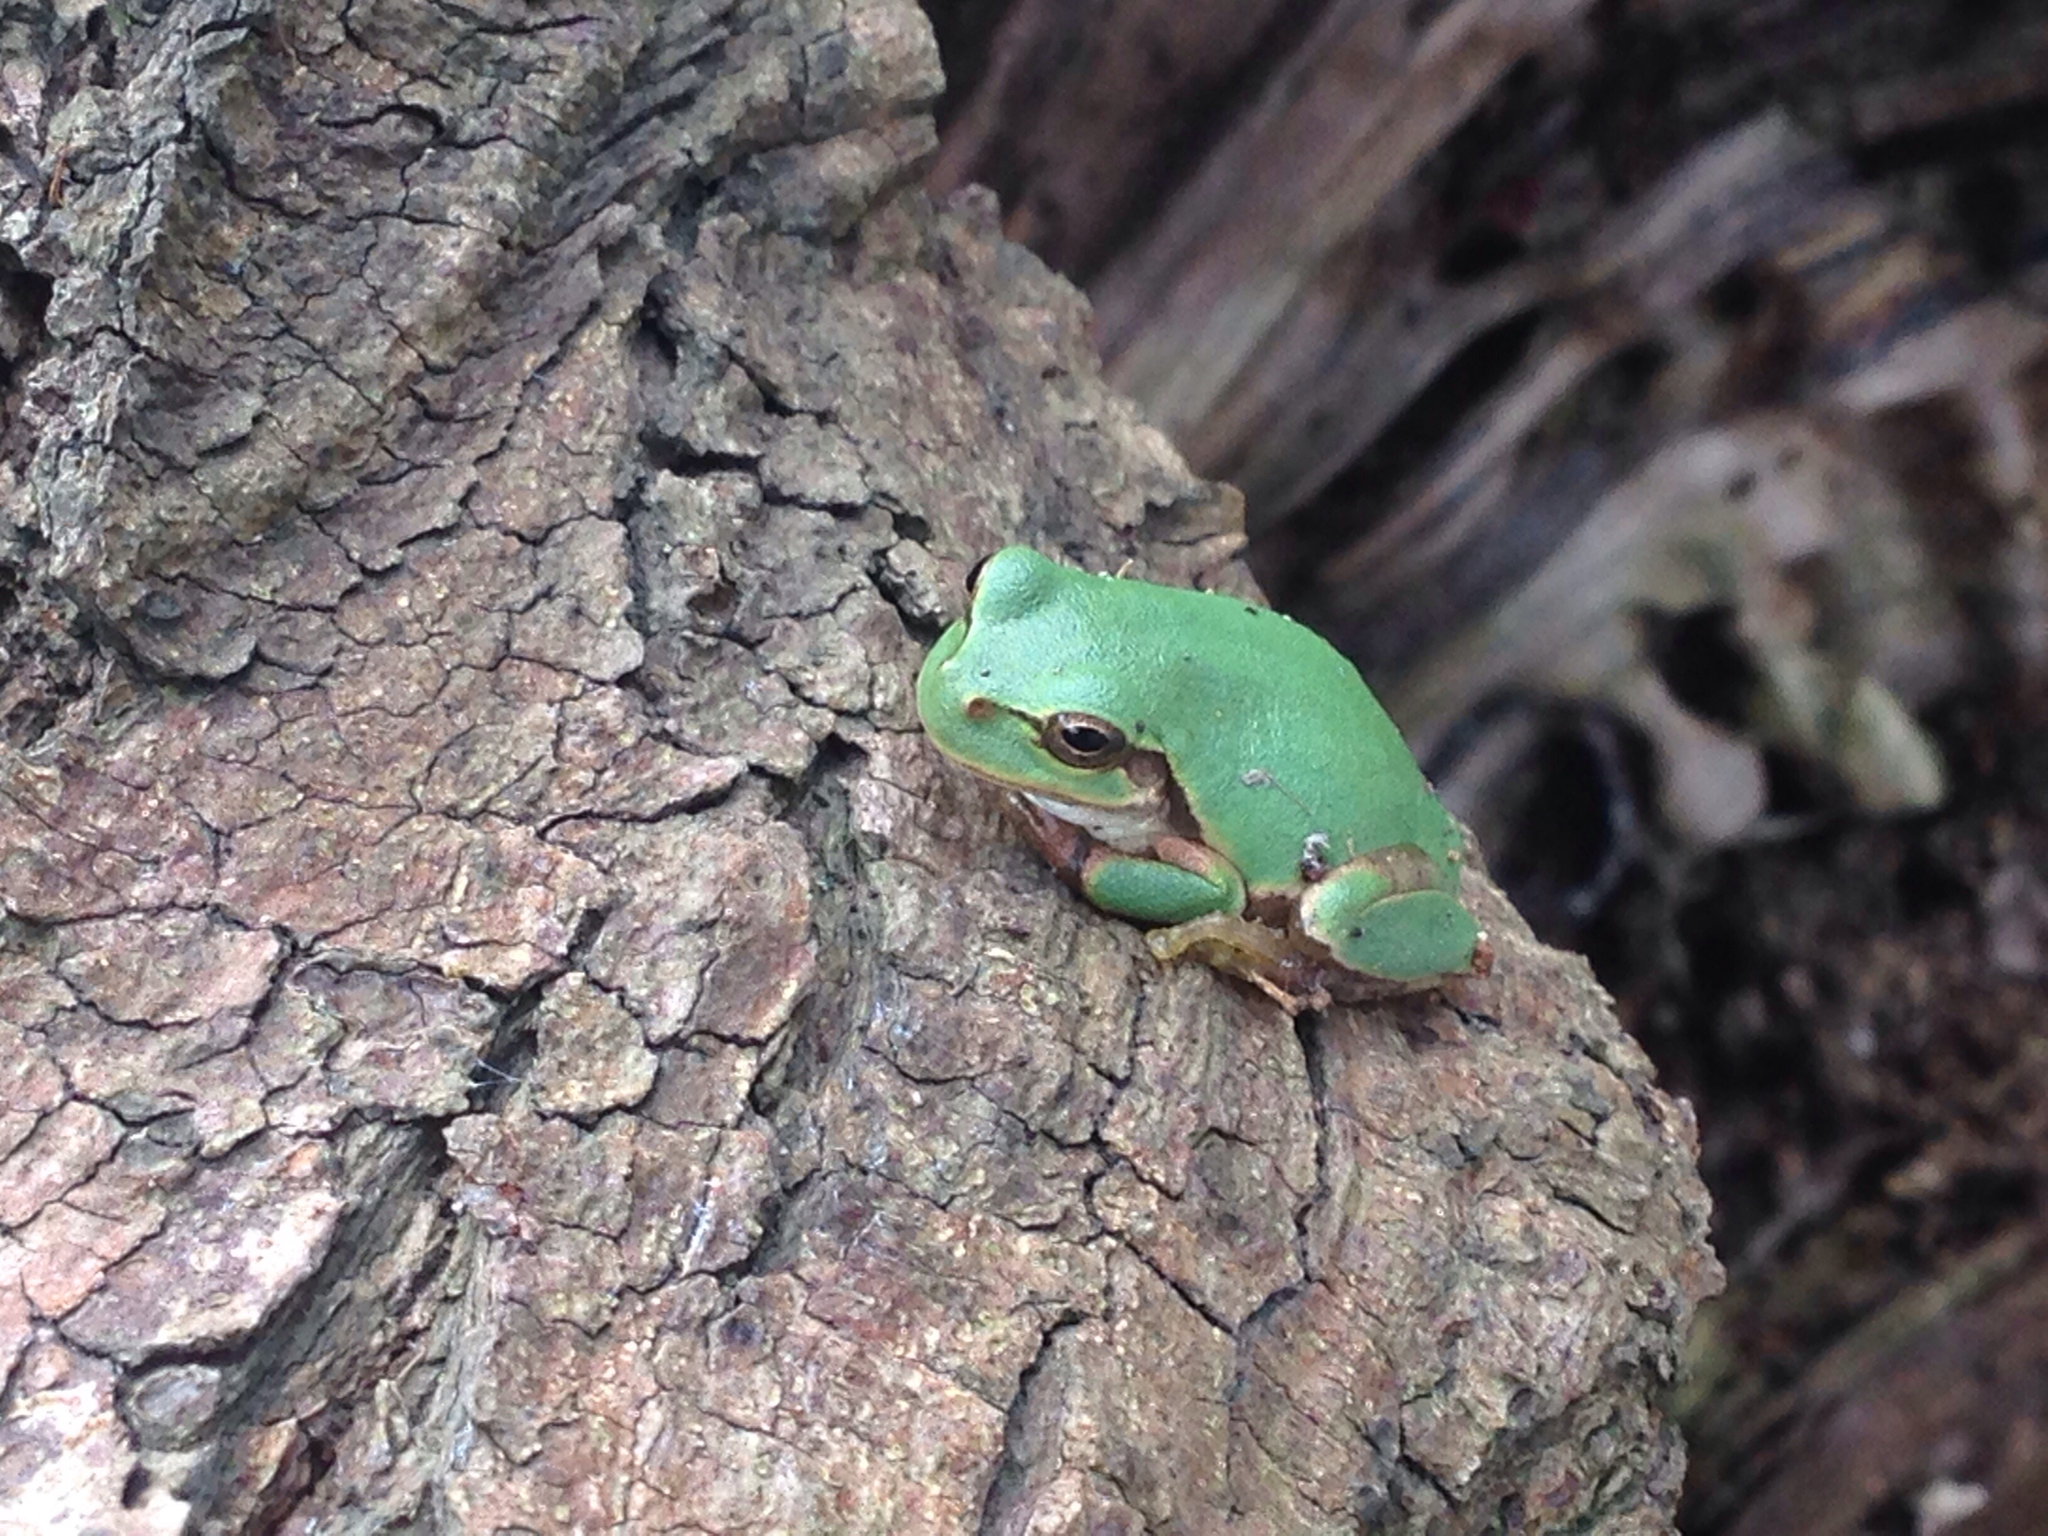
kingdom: Animalia
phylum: Chordata
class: Amphibia
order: Anura
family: Hylidae
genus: Dryophytes
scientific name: Dryophytes japonicus
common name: Japanese treefrog
